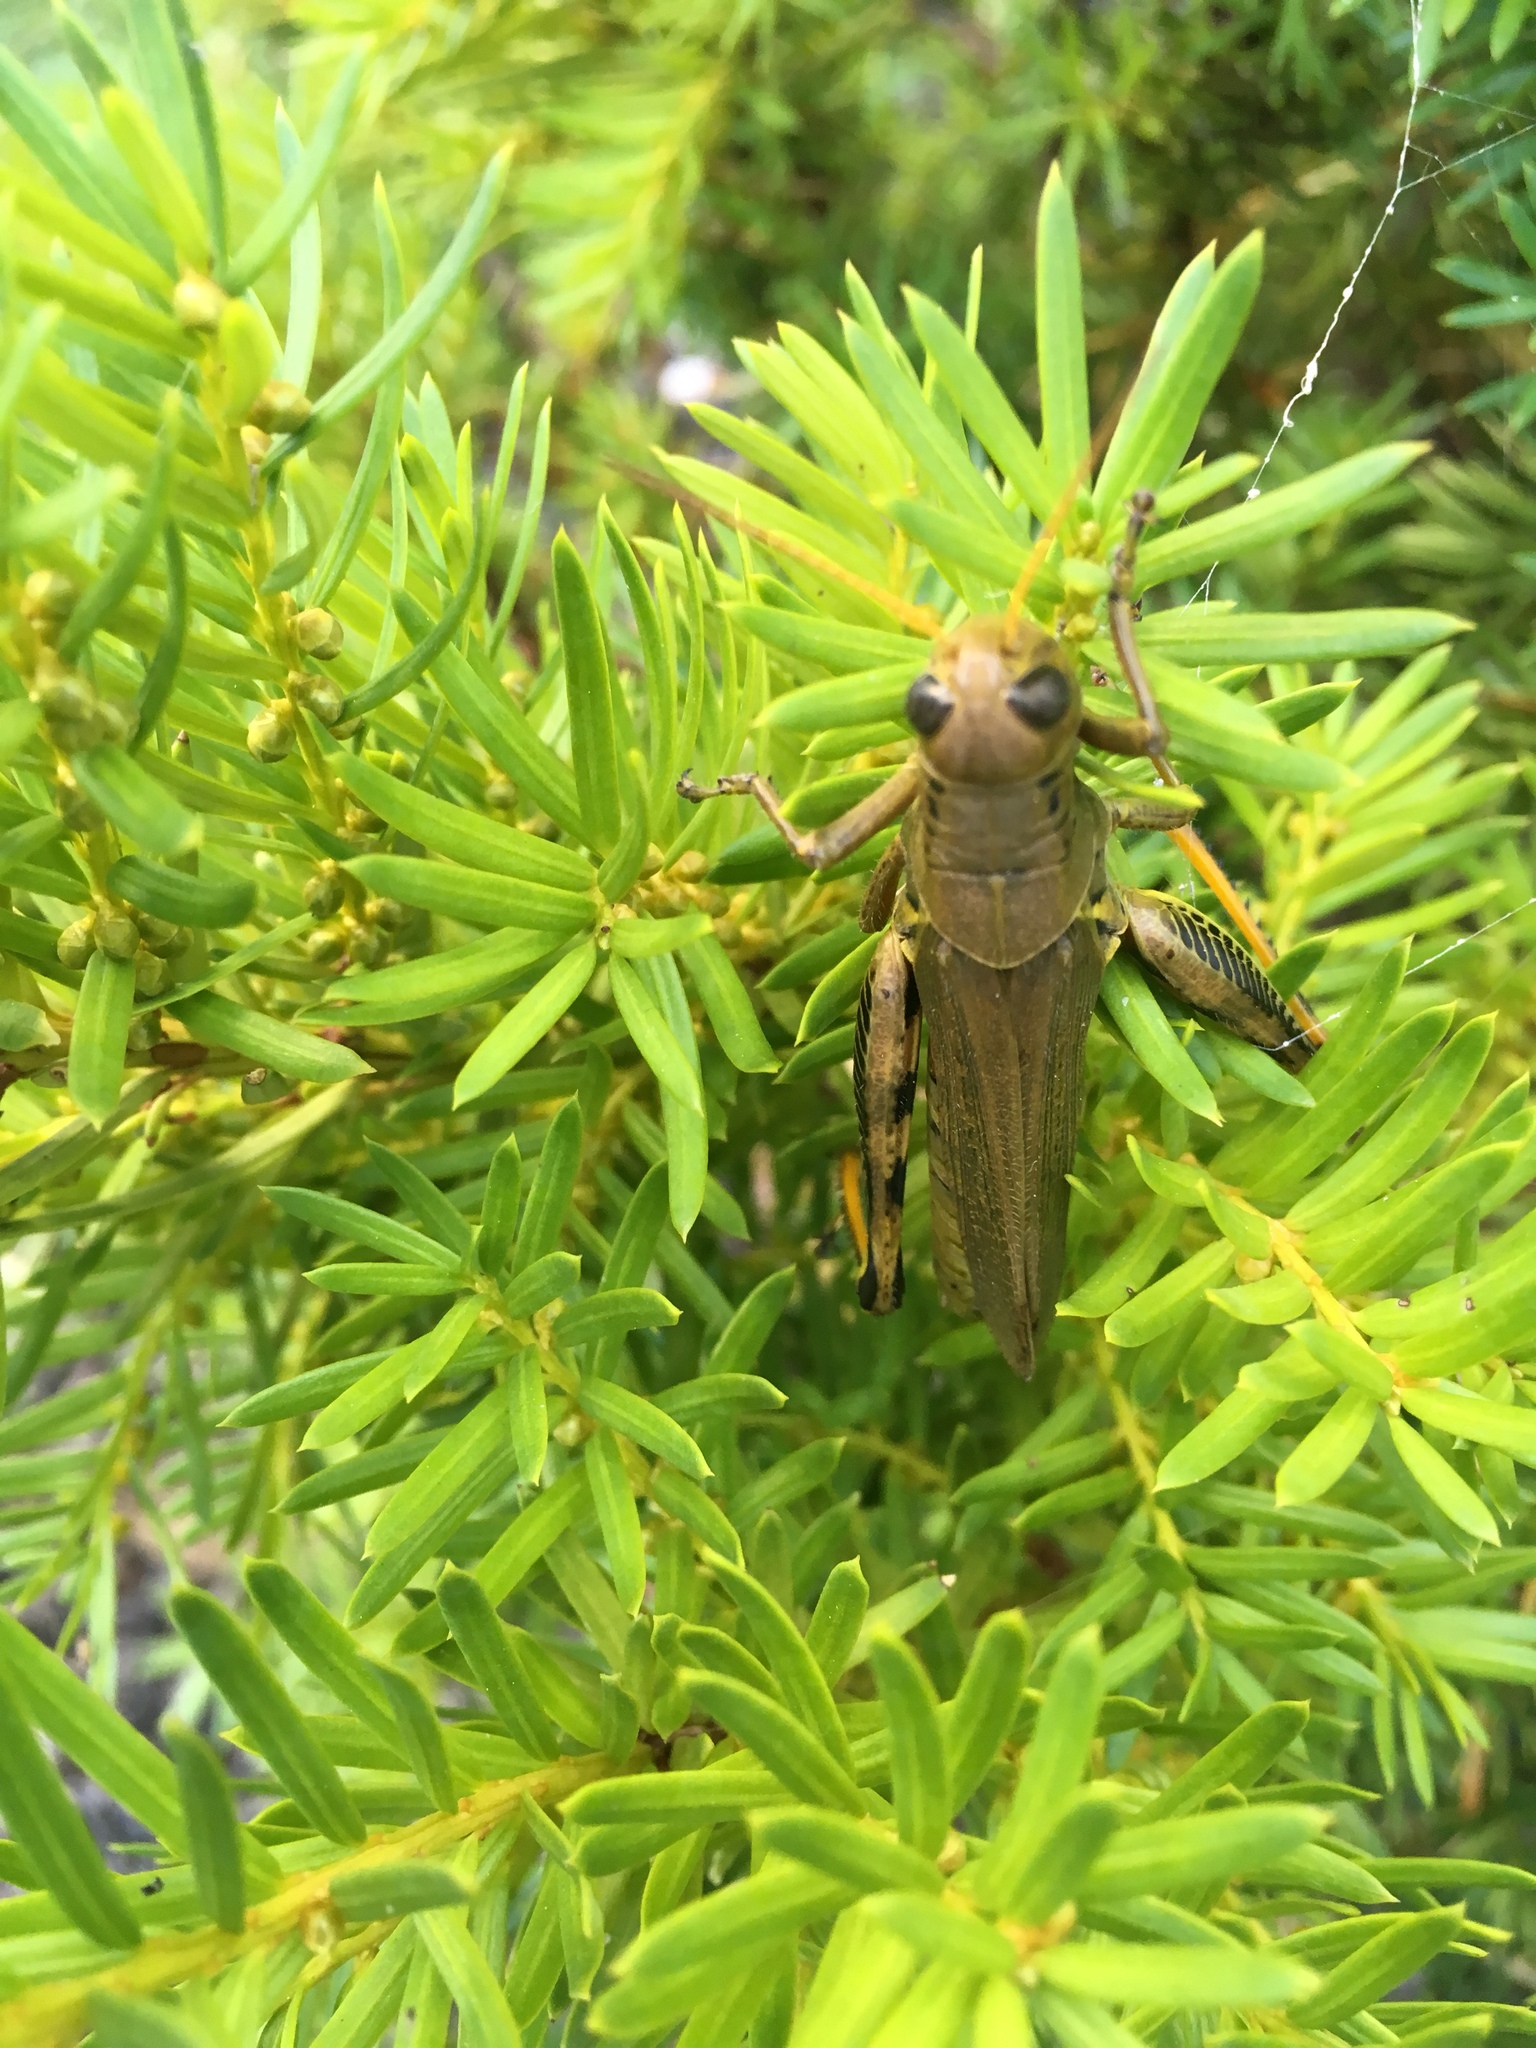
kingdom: Animalia
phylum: Arthropoda
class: Insecta
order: Orthoptera
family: Acrididae
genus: Melanoplus
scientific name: Melanoplus differentialis
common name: Differential grasshopper
